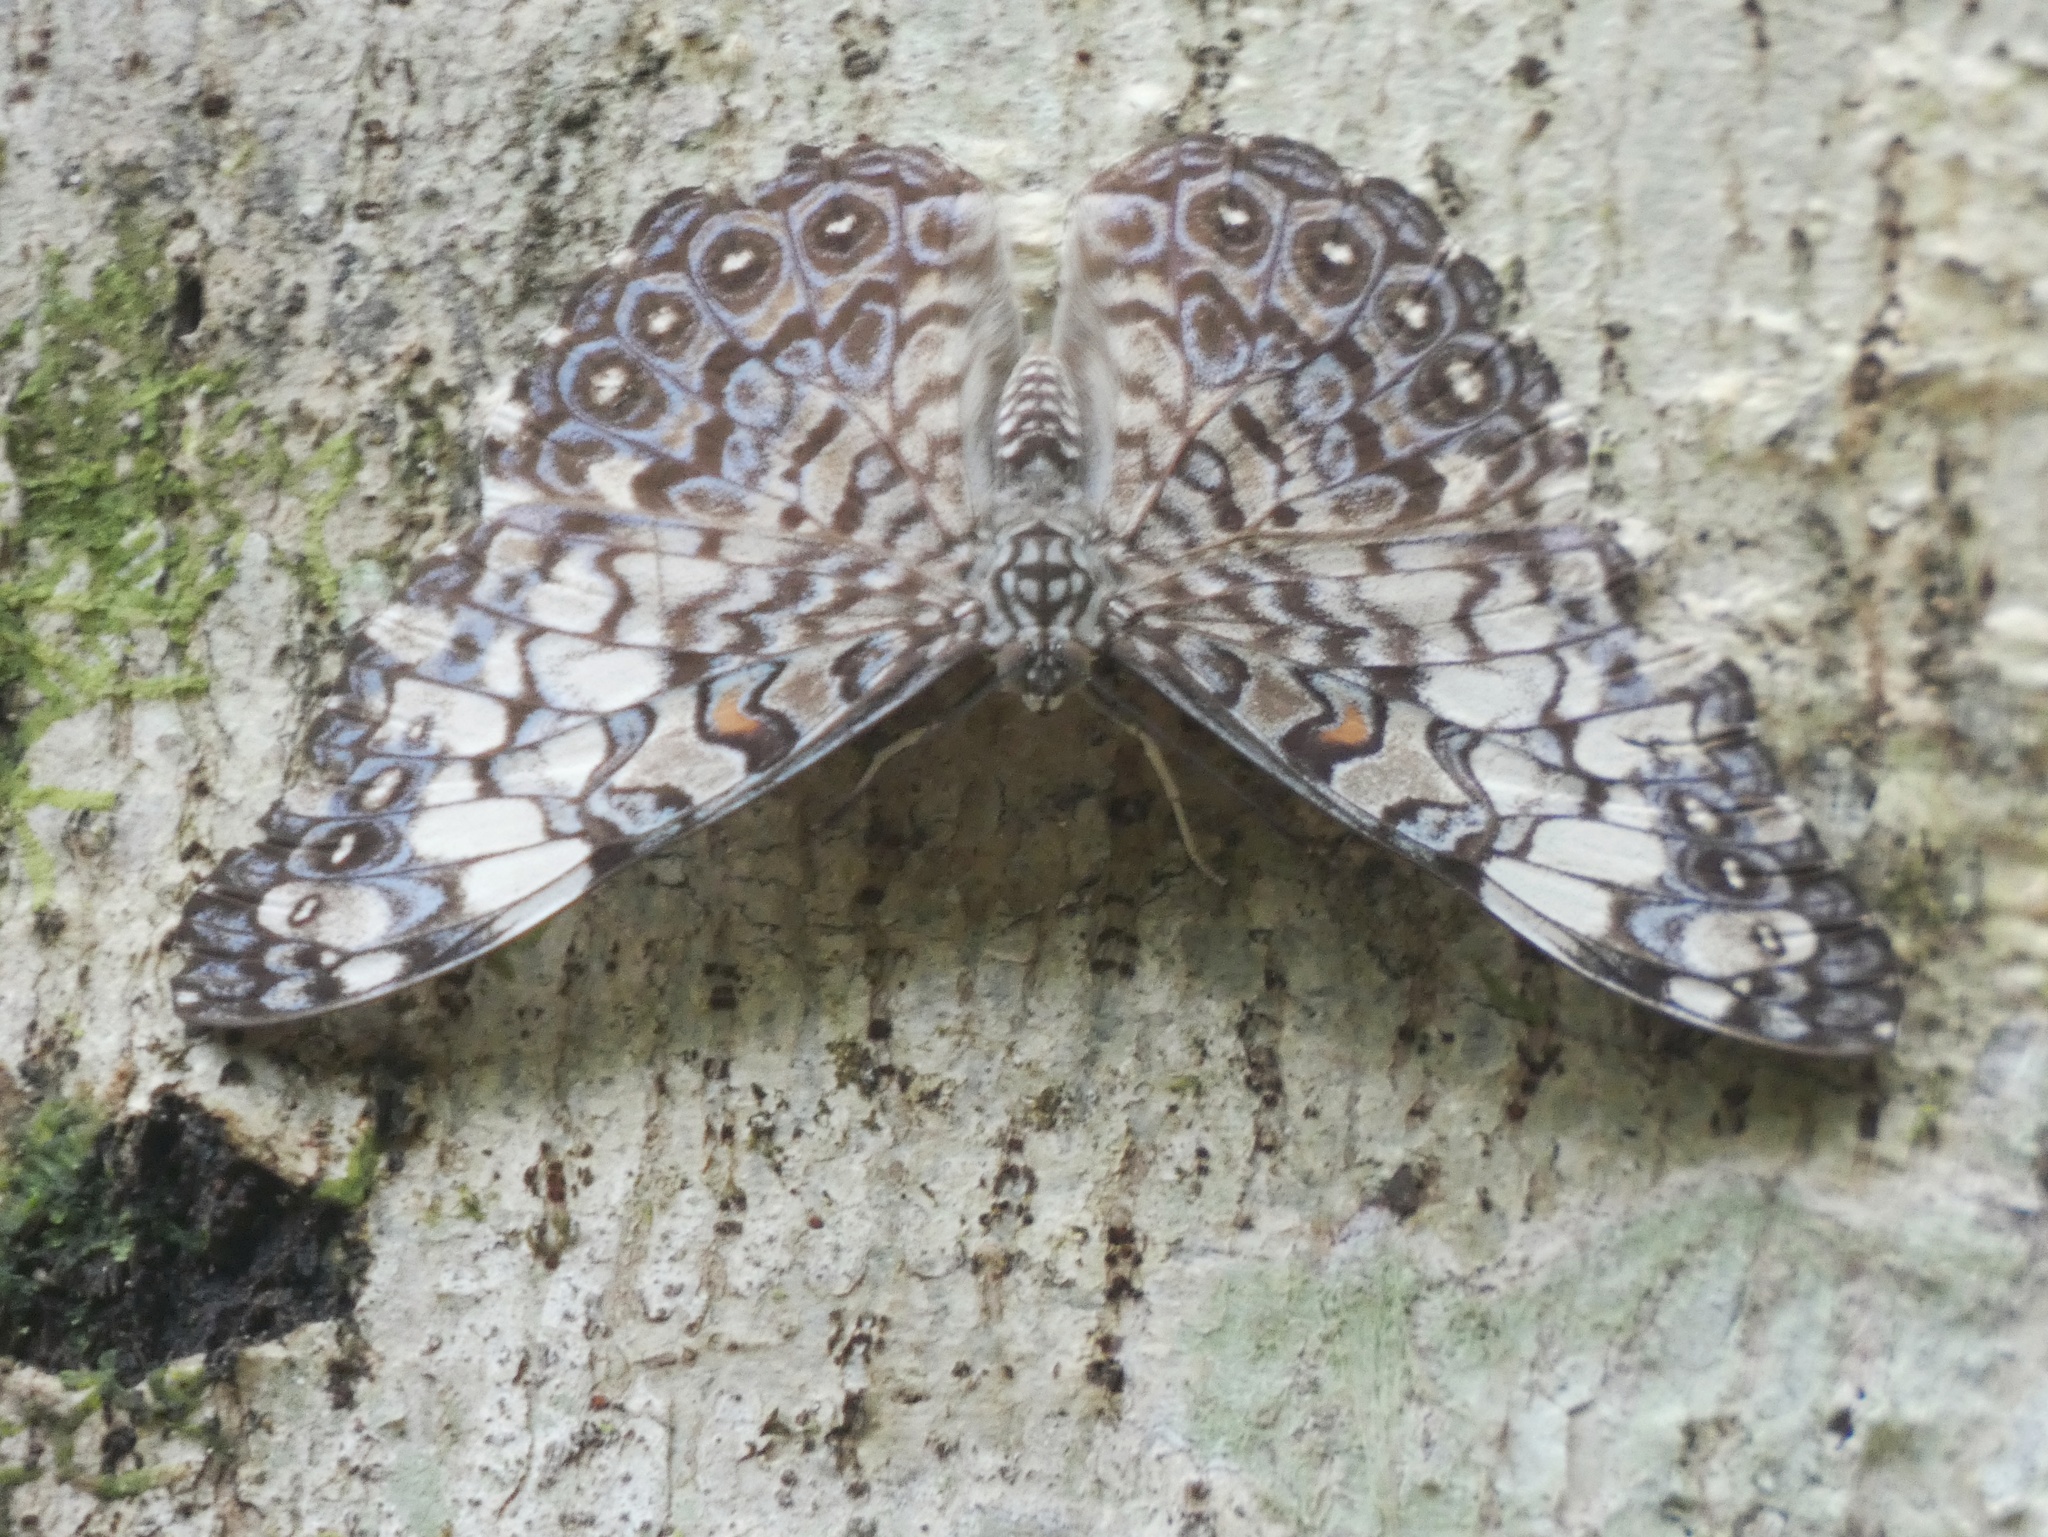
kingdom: Animalia
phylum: Arthropoda
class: Insecta
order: Lepidoptera
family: Nymphalidae
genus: Hamadryas
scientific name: Hamadryas iphthime
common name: Brownish cracker
